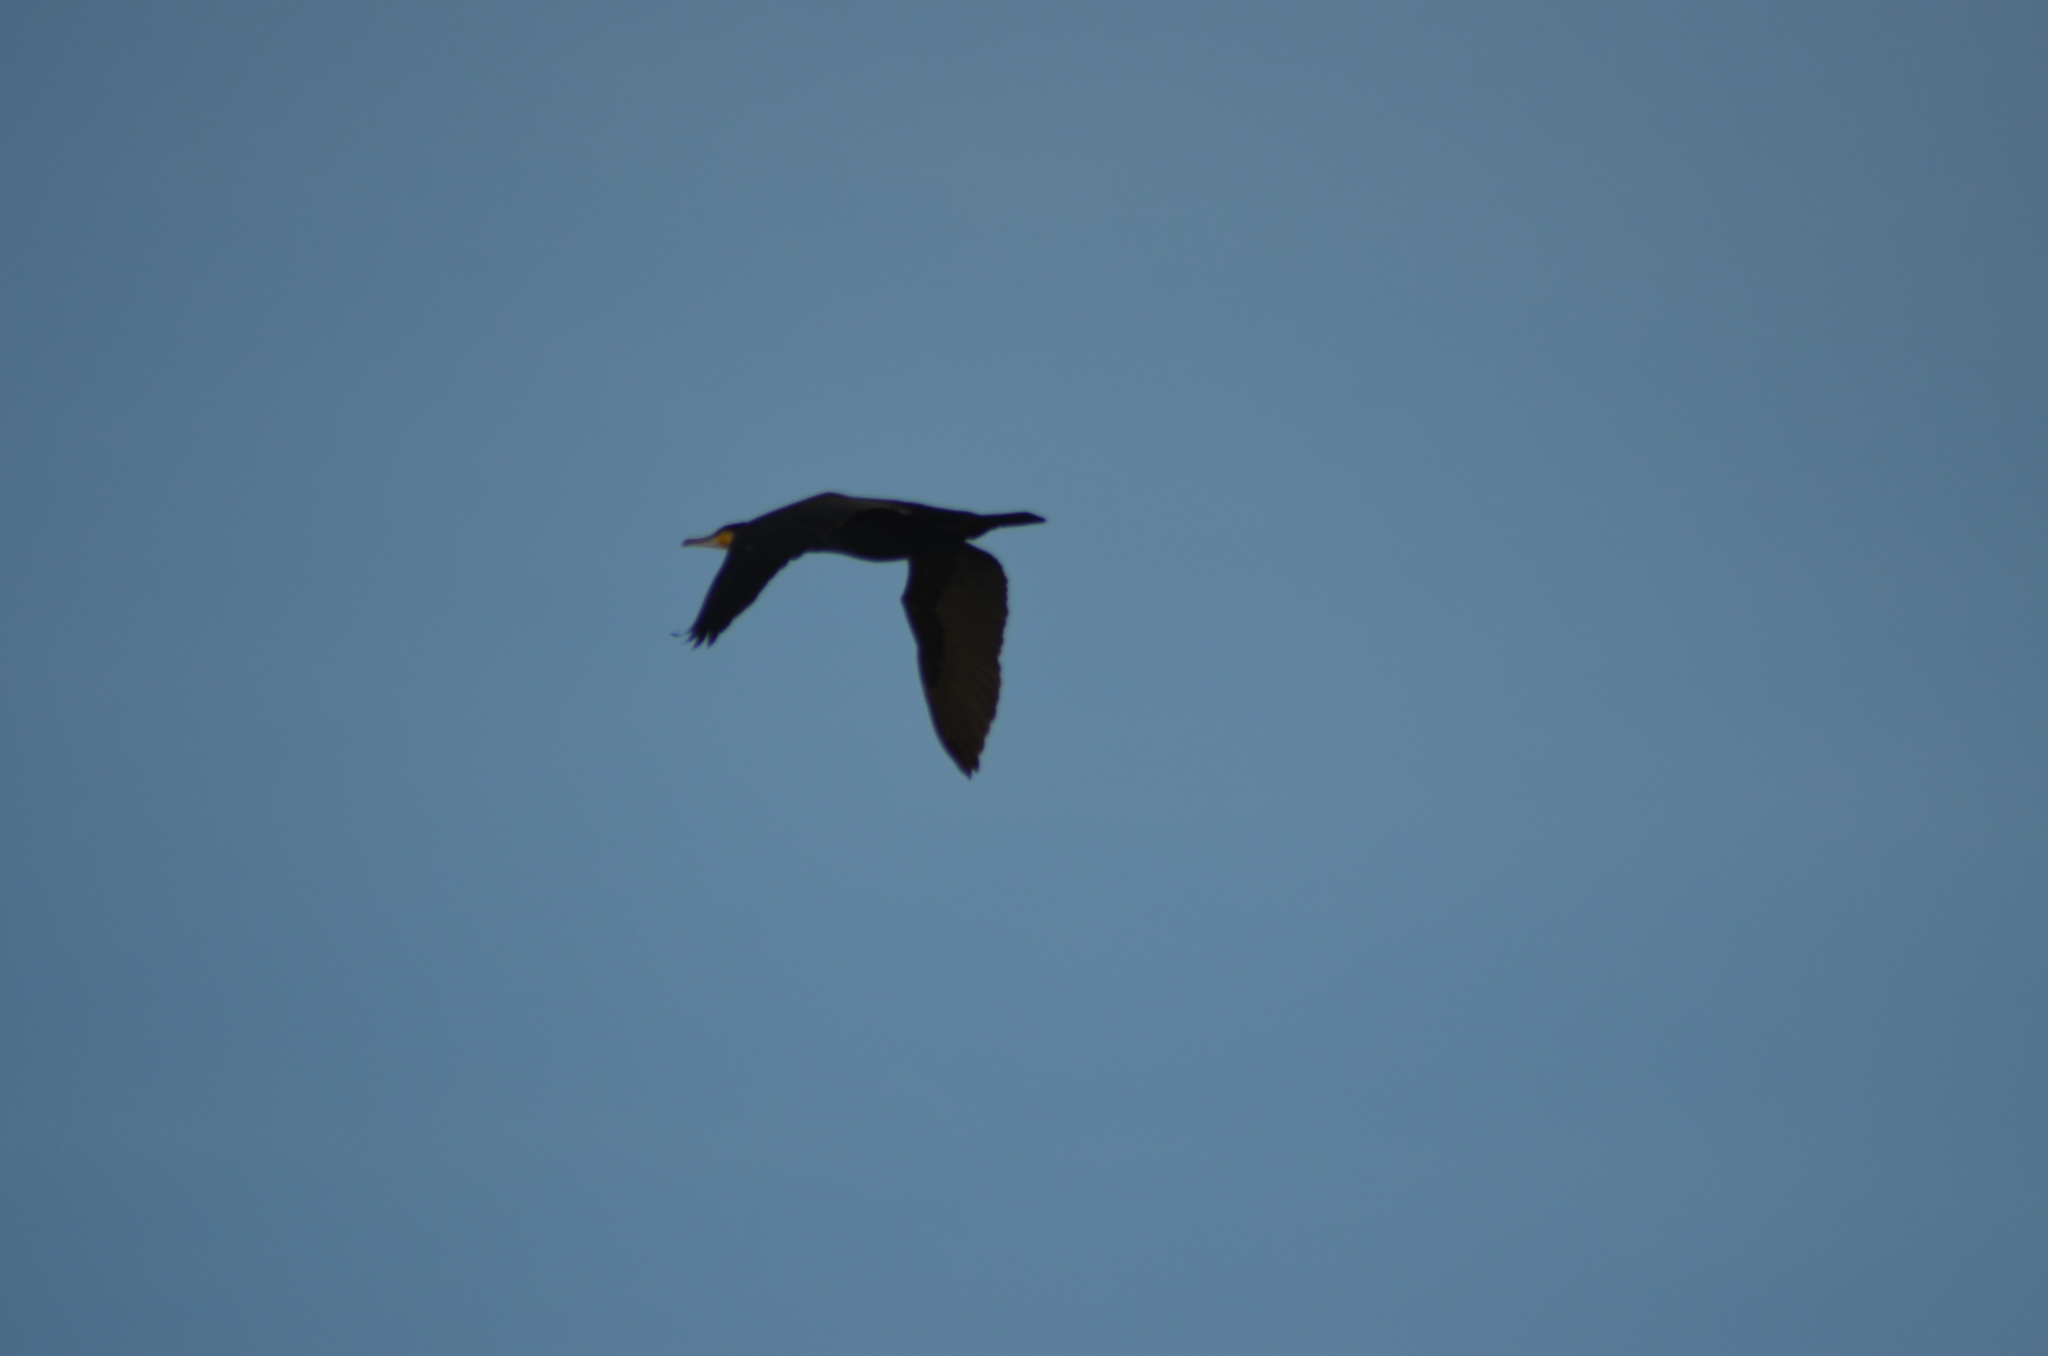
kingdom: Animalia
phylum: Chordata
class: Aves
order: Suliformes
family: Phalacrocoracidae
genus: Phalacrocorax
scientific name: Phalacrocorax carbo
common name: Great cormorant
